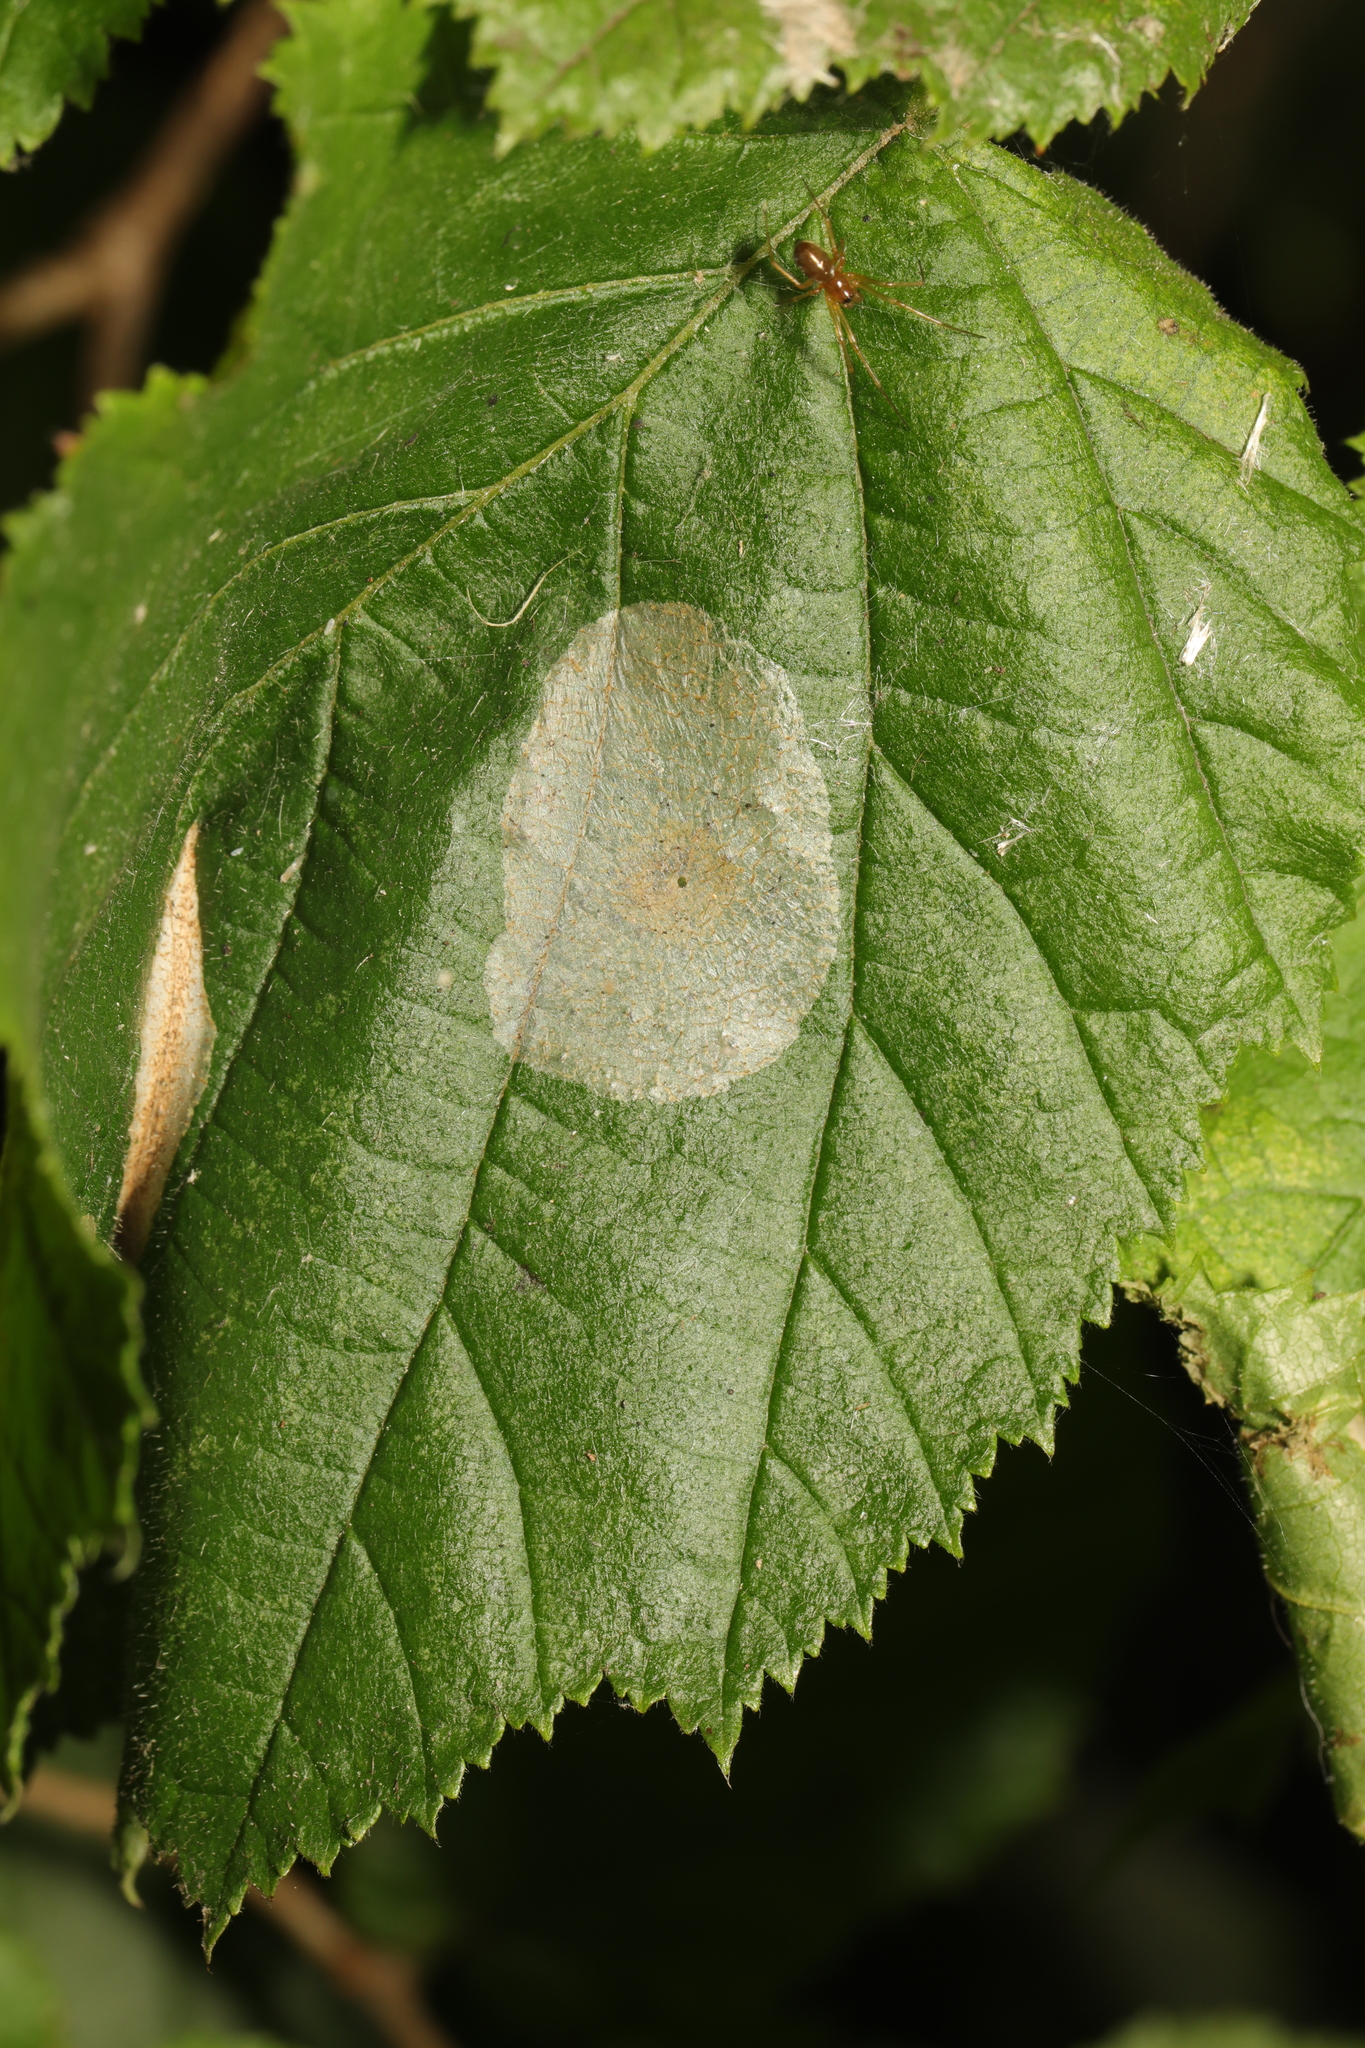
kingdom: Animalia
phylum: Arthropoda
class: Insecta
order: Lepidoptera
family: Gracillariidae
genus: Phyllonorycter
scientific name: Phyllonorycter coryli
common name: Nut-leaf blister moth
